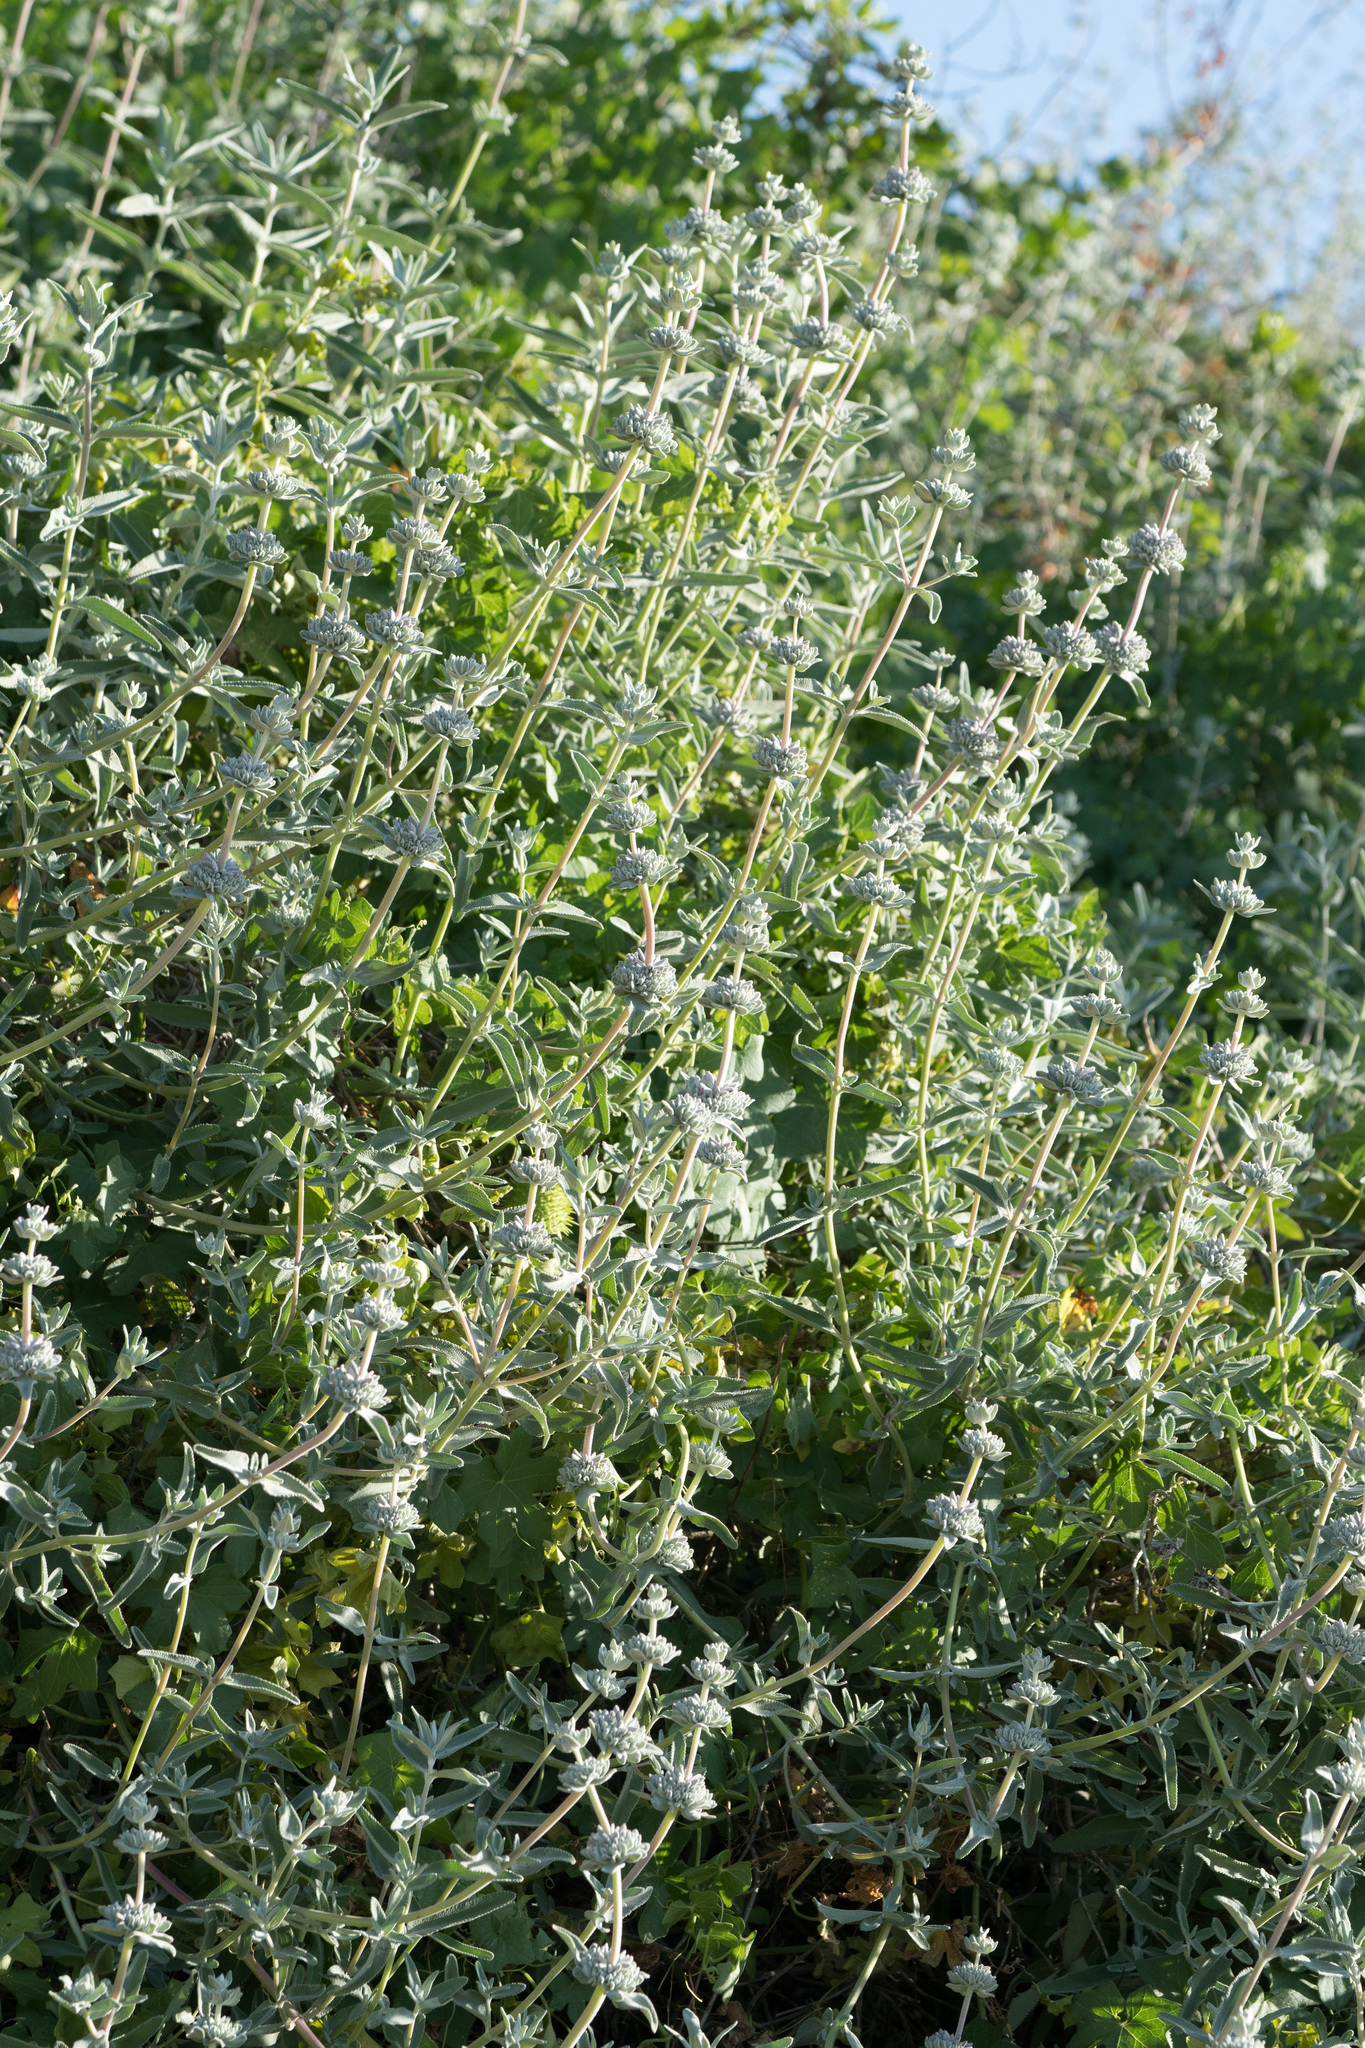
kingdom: Plantae
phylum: Tracheophyta
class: Magnoliopsida
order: Lamiales
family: Lamiaceae
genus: Salvia
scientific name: Salvia leucophylla
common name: Purple sage
